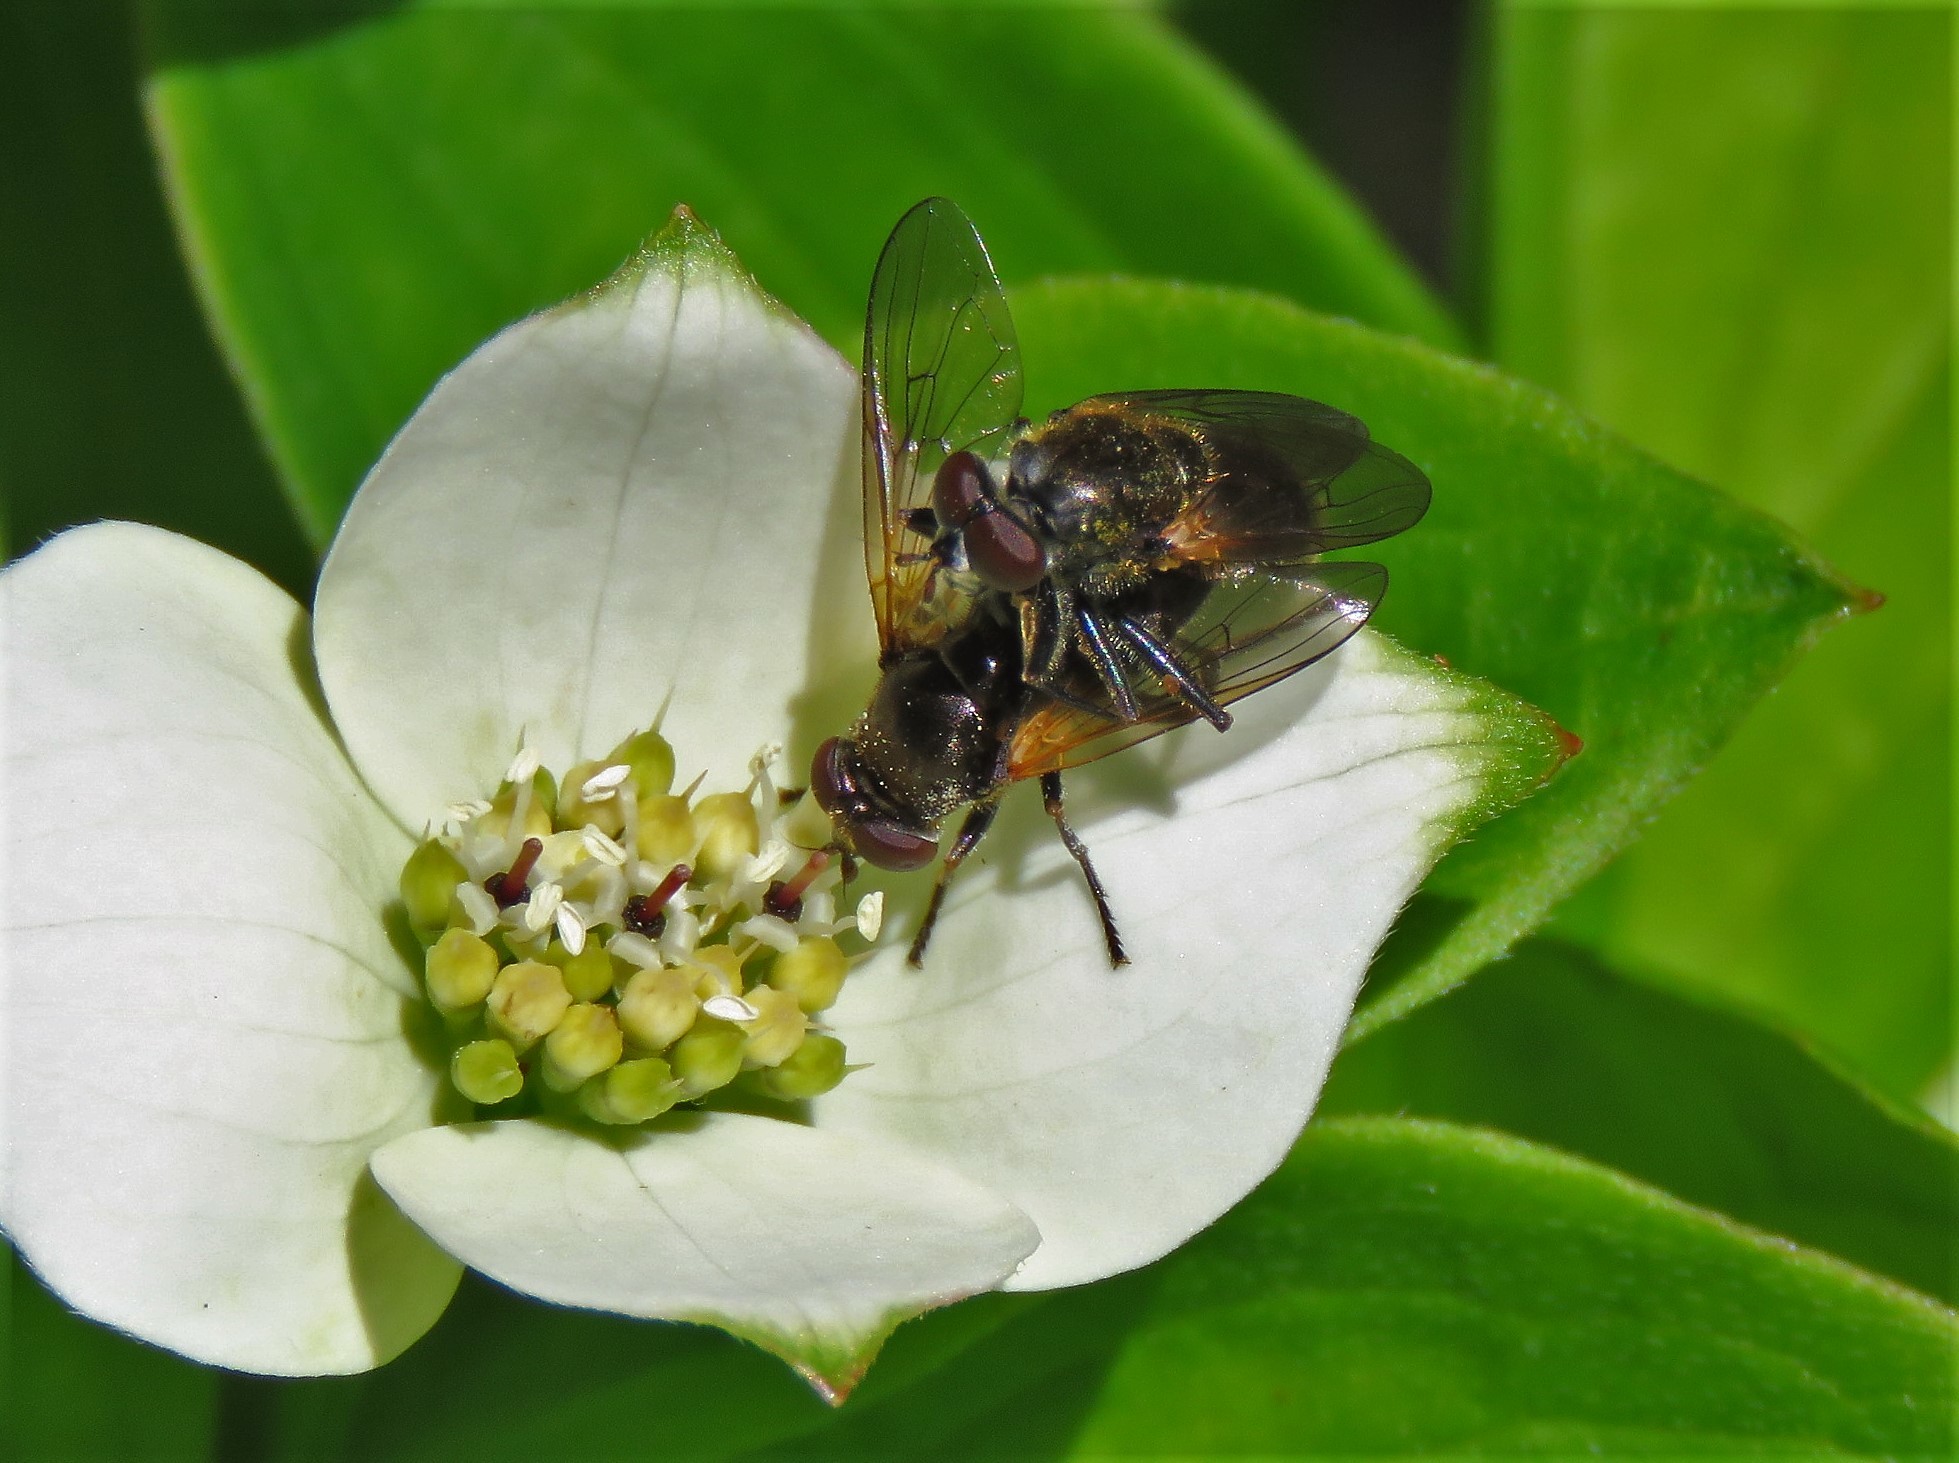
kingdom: Animalia
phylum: Arthropoda
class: Insecta
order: Diptera
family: Syrphidae
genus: Blera
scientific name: Blera nigra
